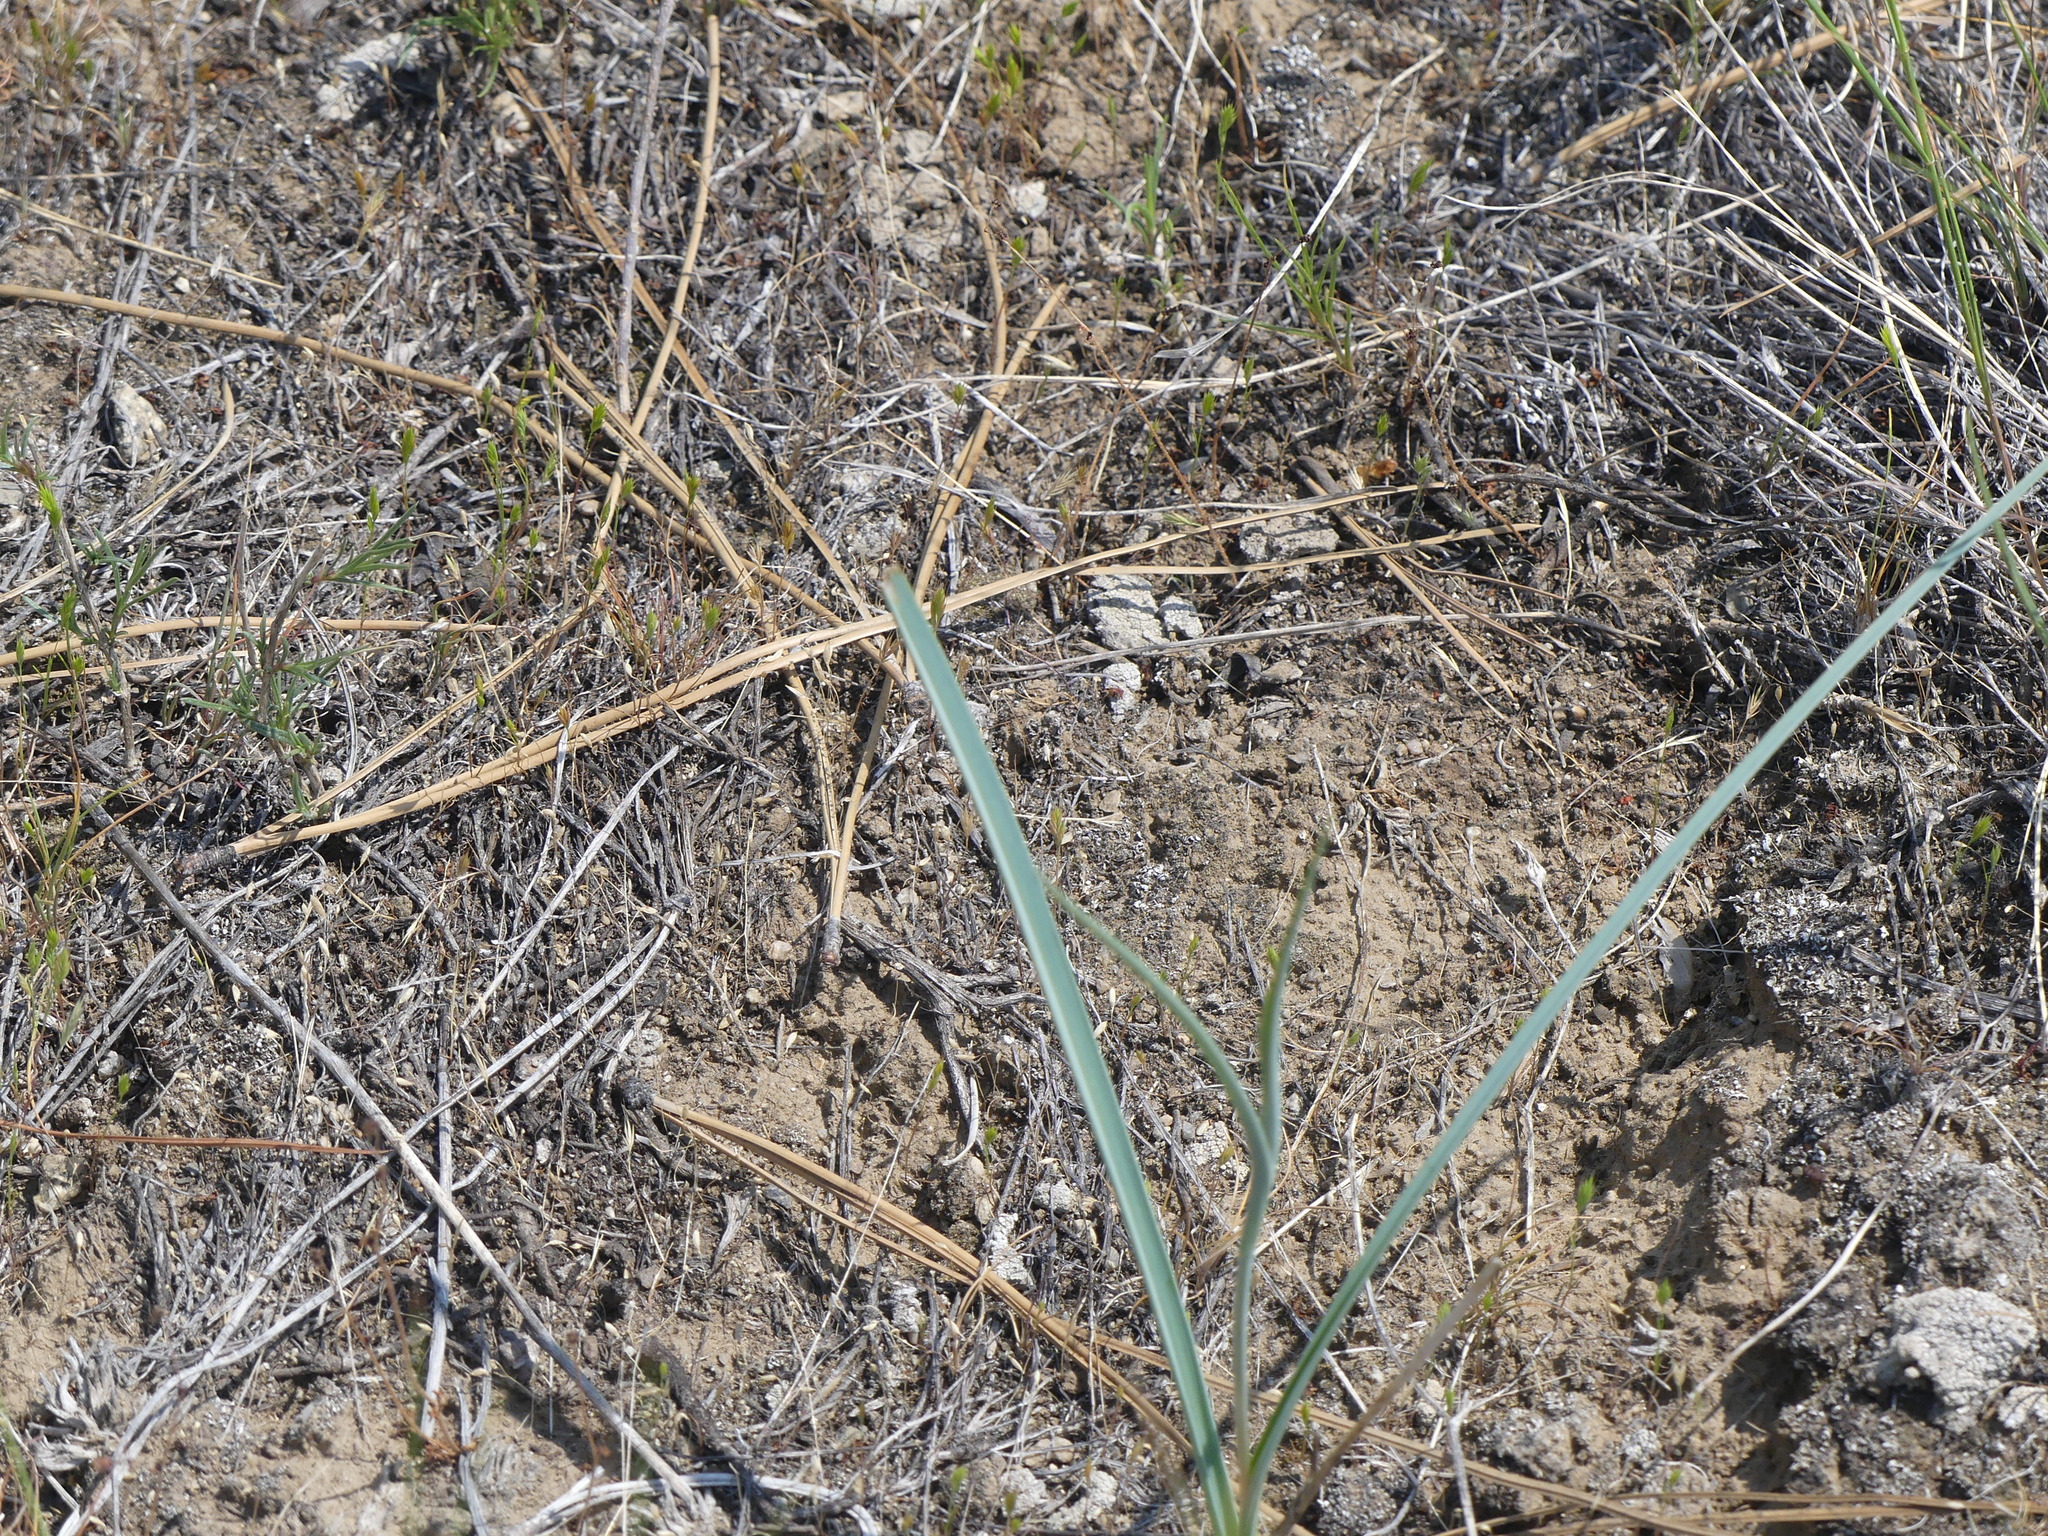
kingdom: Plantae
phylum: Tracheophyta
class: Liliopsida
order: Liliales
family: Liliaceae
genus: Calochortus
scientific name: Calochortus macrocarpus
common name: Green-band mariposa lily
